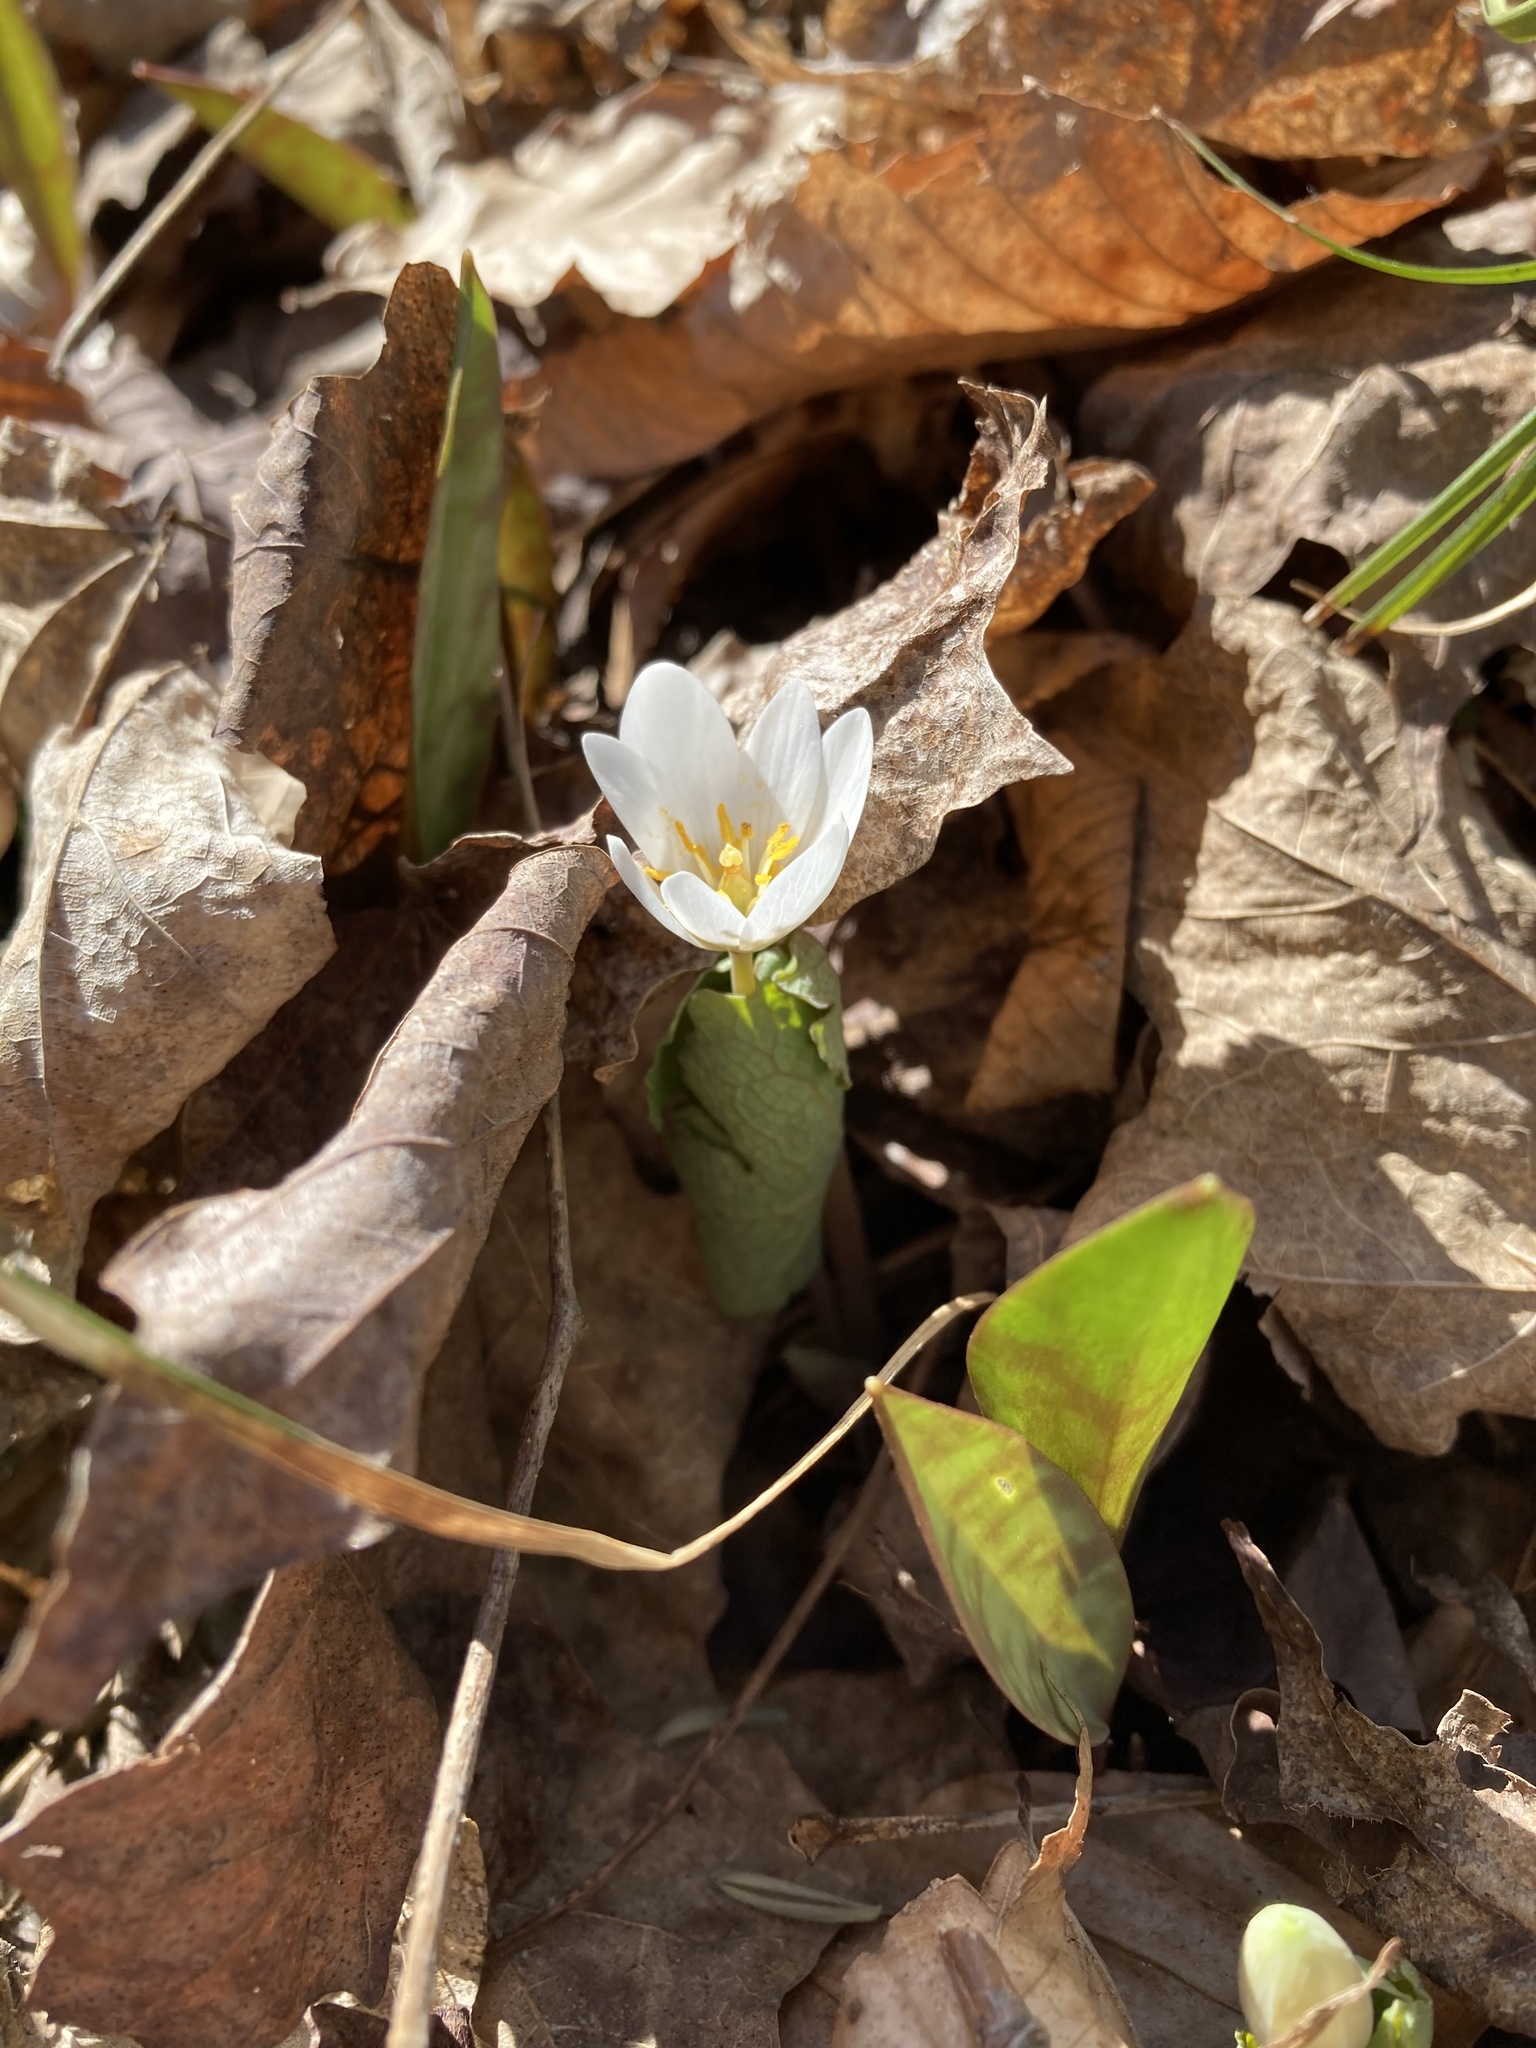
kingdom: Plantae
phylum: Tracheophyta
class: Magnoliopsida
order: Ranunculales
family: Papaveraceae
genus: Sanguinaria
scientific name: Sanguinaria canadensis
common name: Bloodroot
